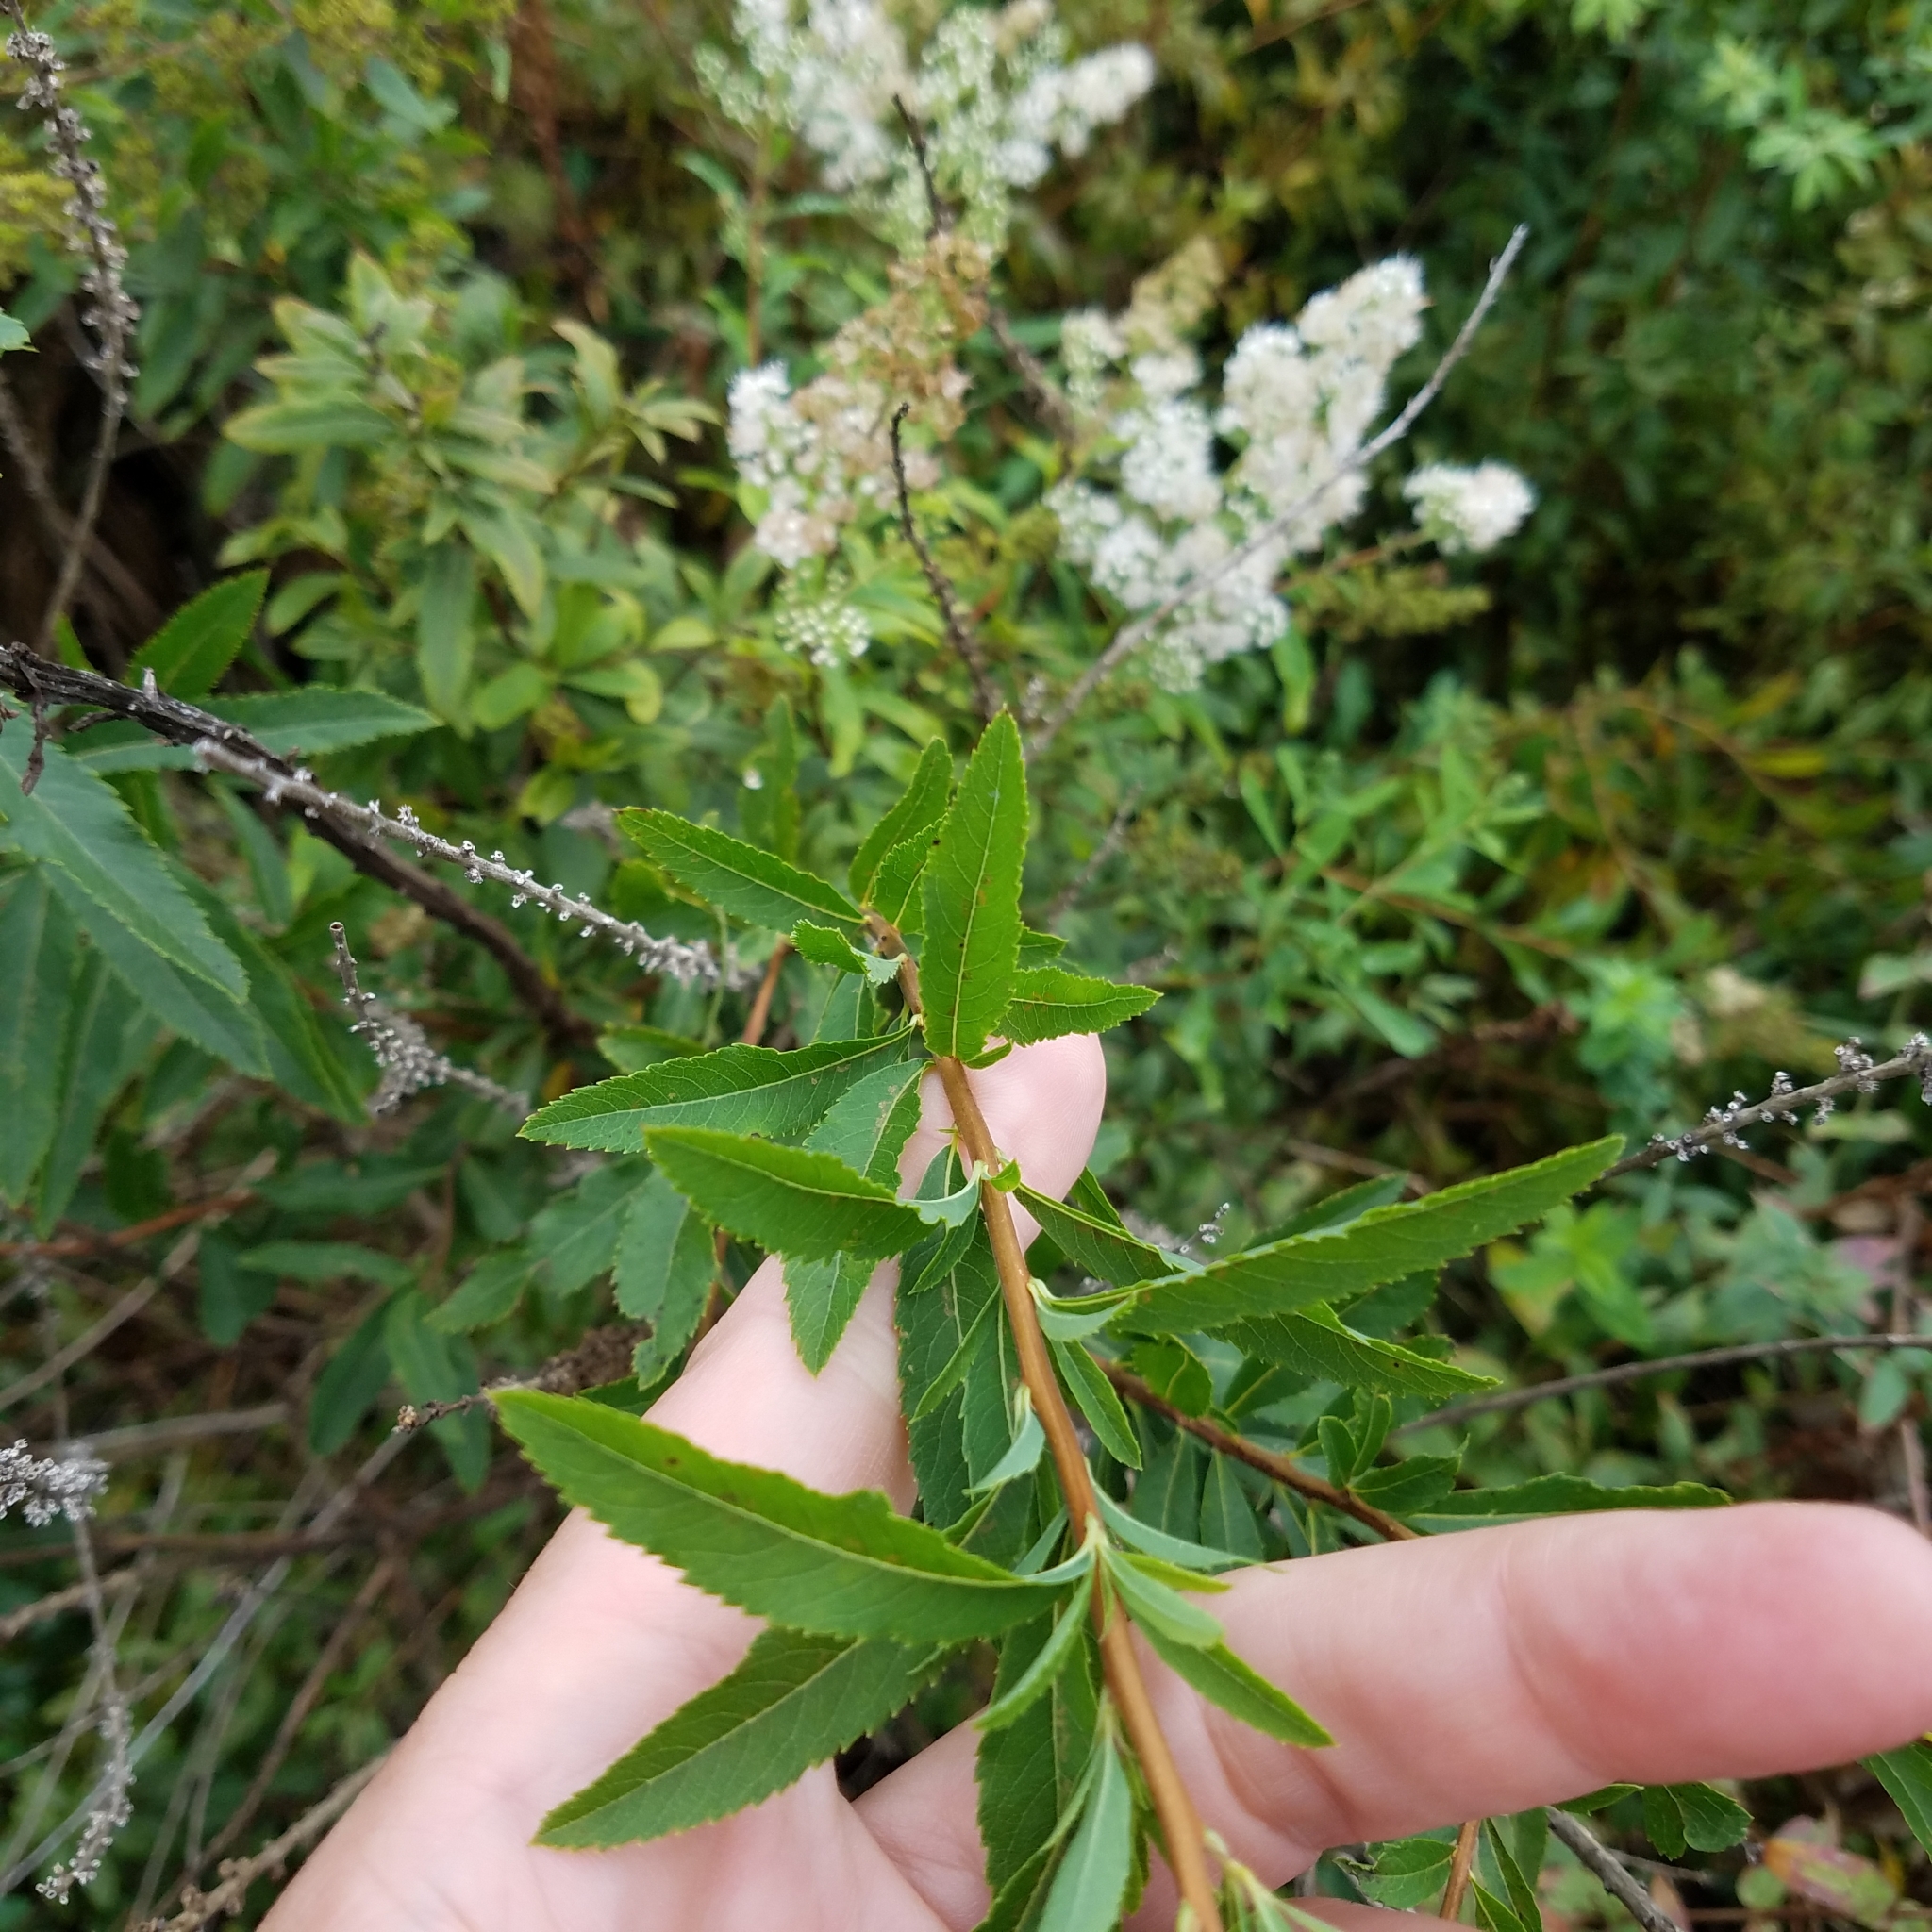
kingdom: Plantae
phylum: Tracheophyta
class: Magnoliopsida
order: Rosales
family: Rosaceae
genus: Spiraea
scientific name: Spiraea alba
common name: Pale bridewort
